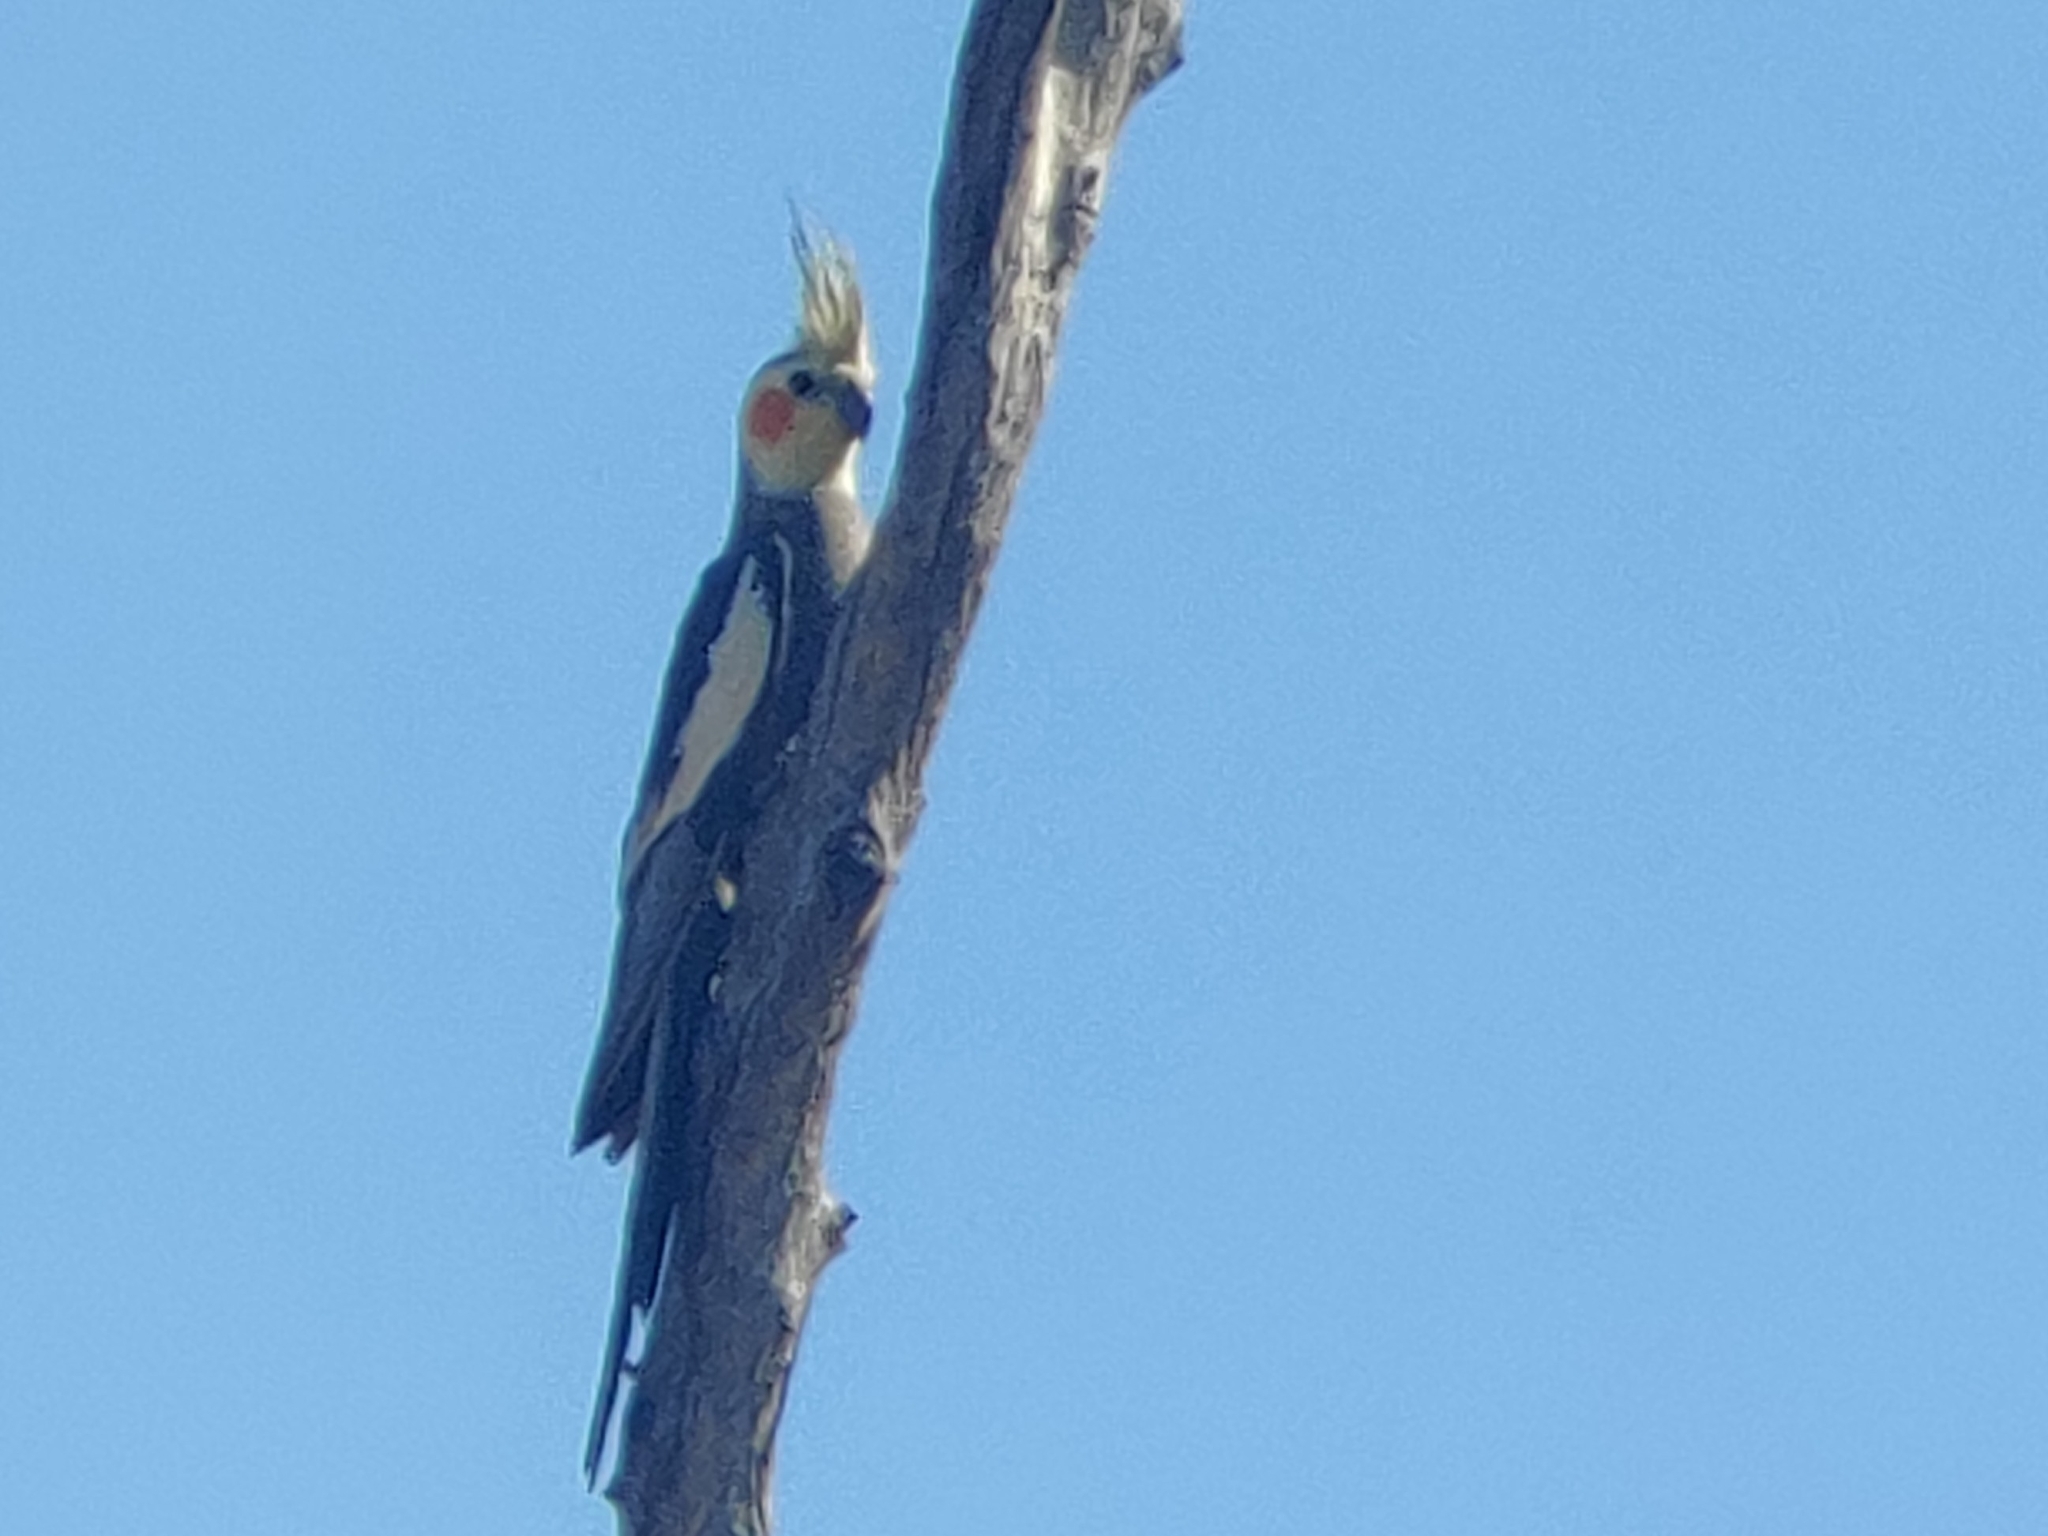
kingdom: Animalia
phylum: Chordata
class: Aves
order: Psittaciformes
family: Psittacidae
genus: Nymphicus
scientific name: Nymphicus hollandicus
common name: Cockatiel
